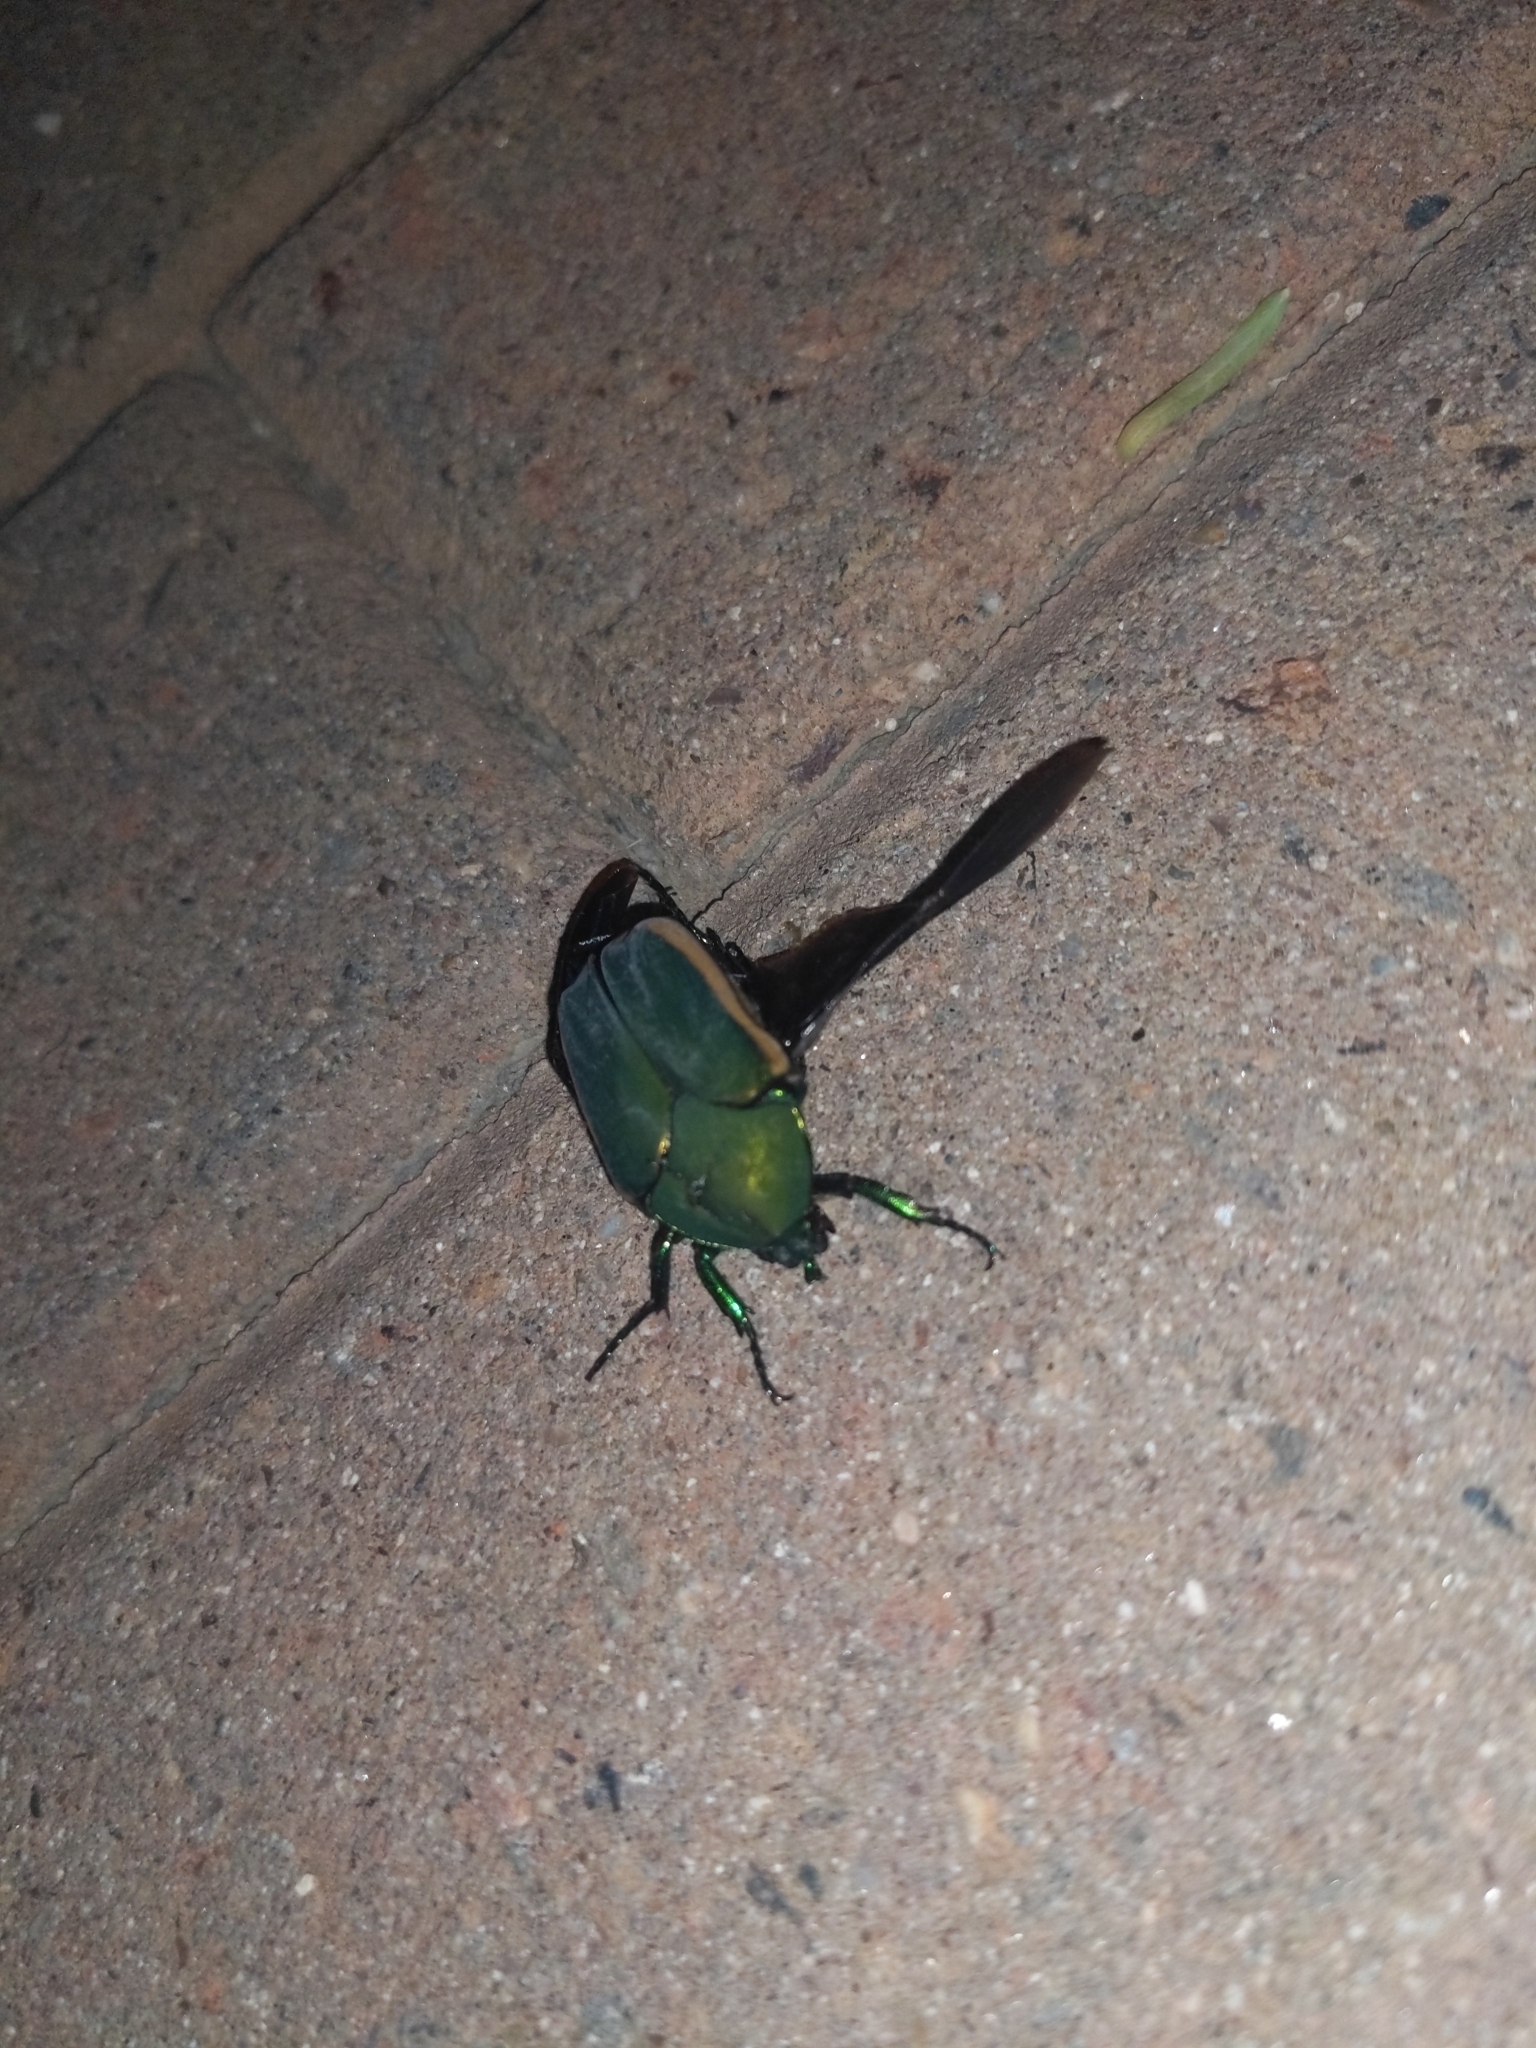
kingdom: Animalia
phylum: Arthropoda
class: Insecta
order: Coleoptera
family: Scarabaeidae
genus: Cotinis
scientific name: Cotinis mutabilis
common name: Figeater beetle
